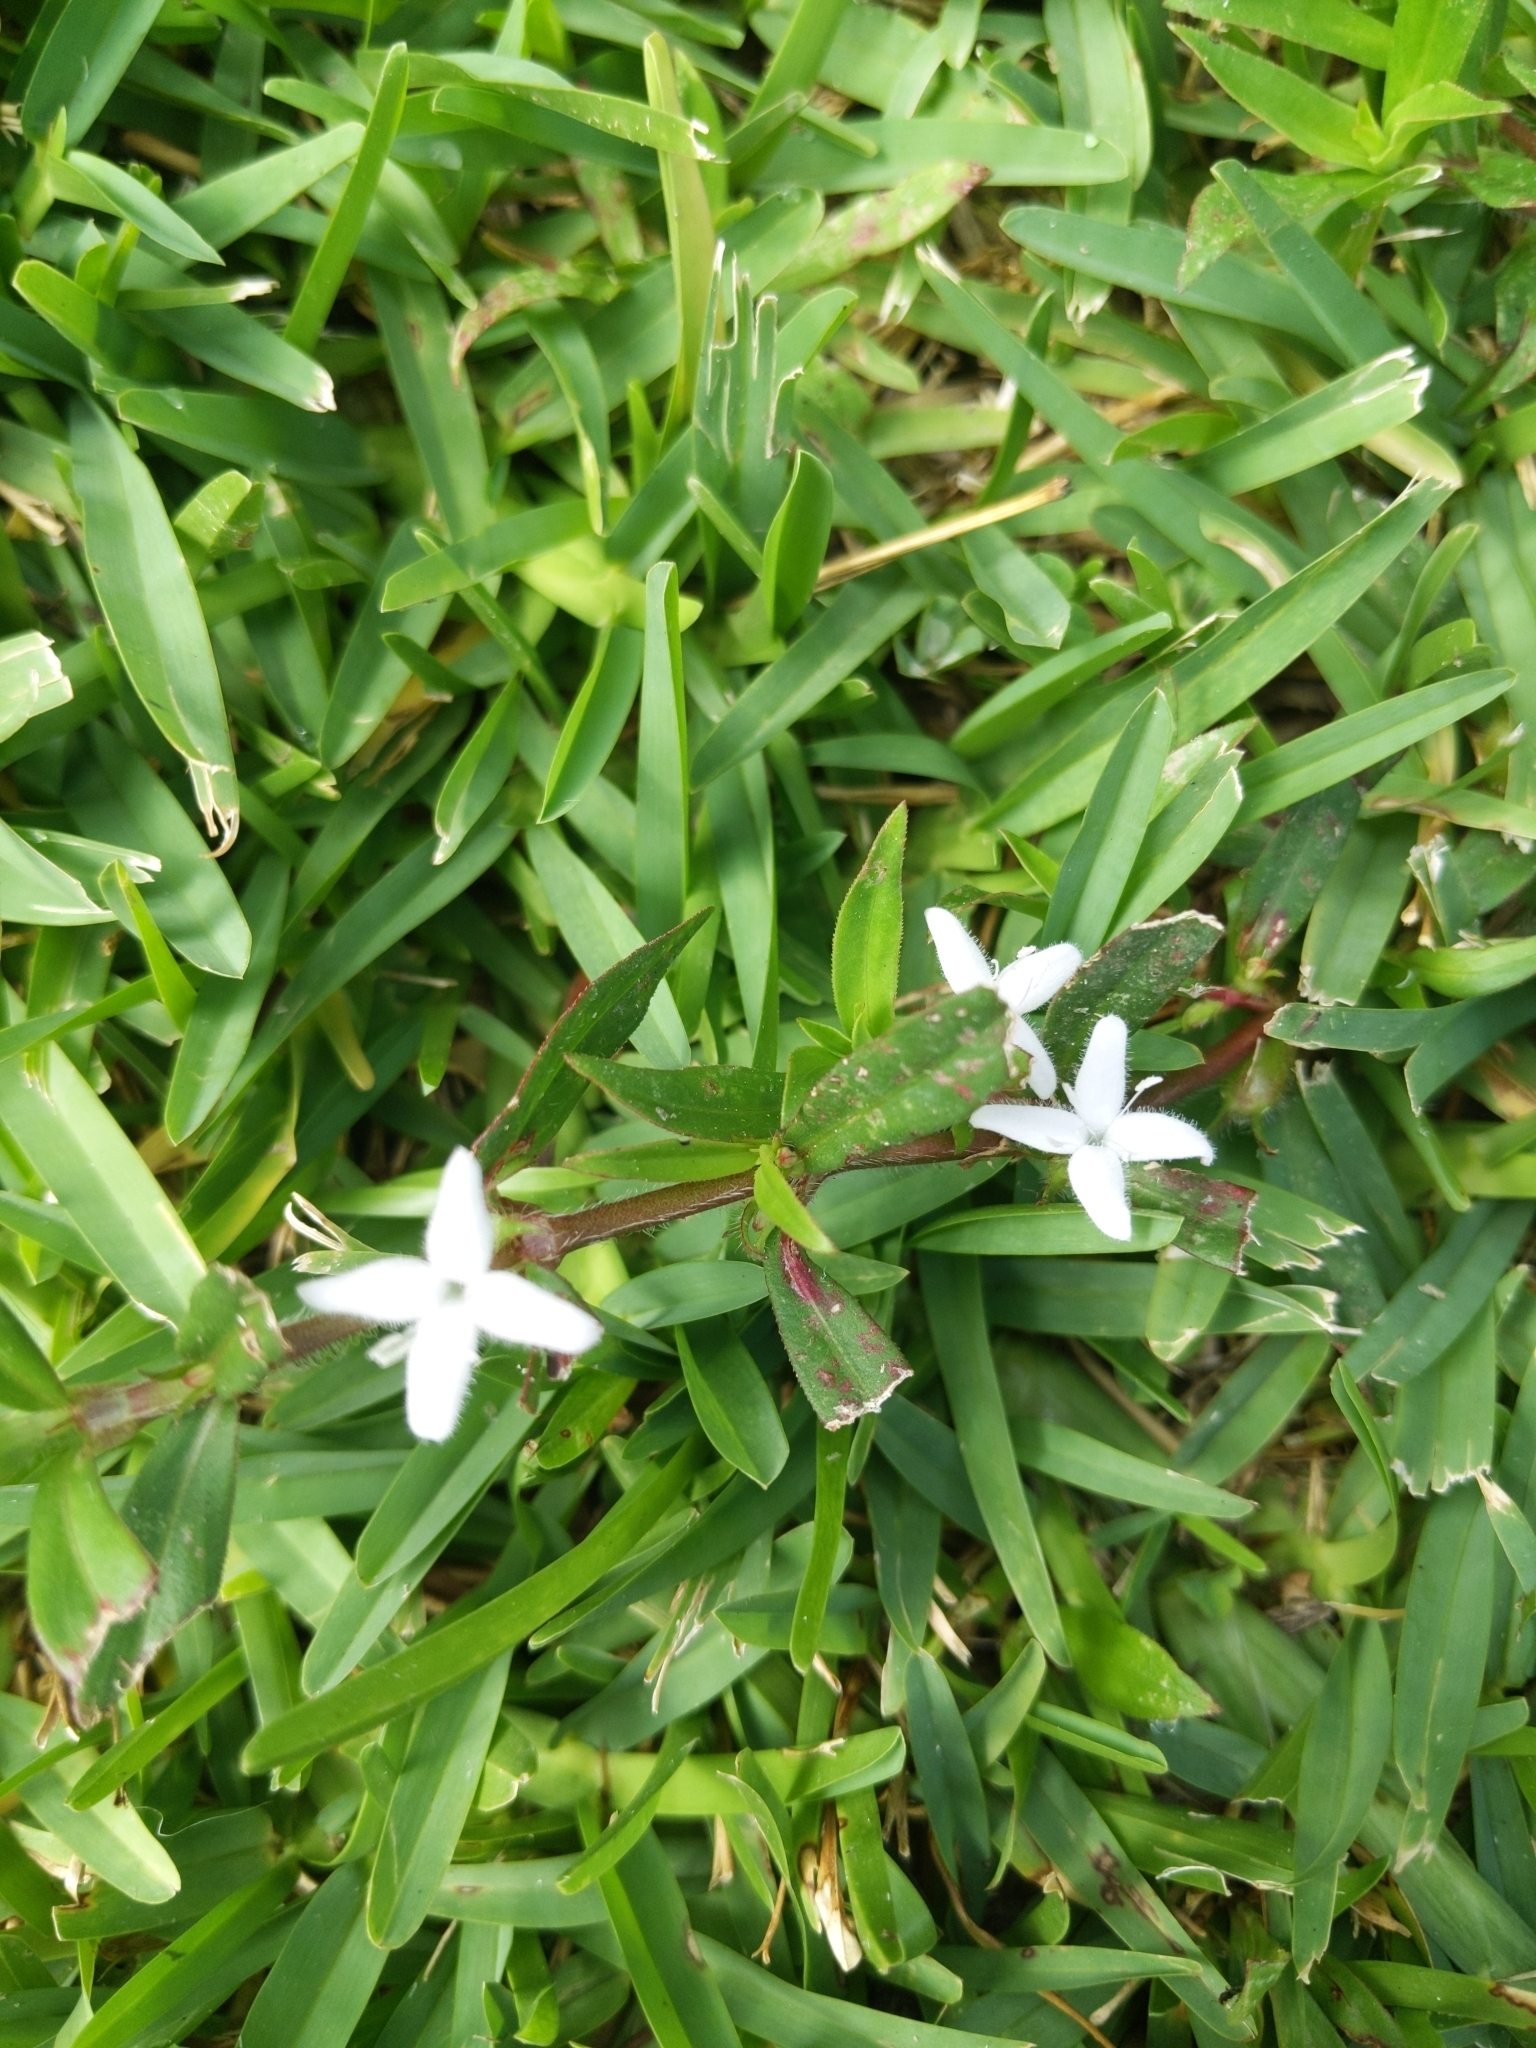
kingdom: Plantae
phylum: Tracheophyta
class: Magnoliopsida
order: Gentianales
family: Rubiaceae
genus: Diodia
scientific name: Diodia virginiana
